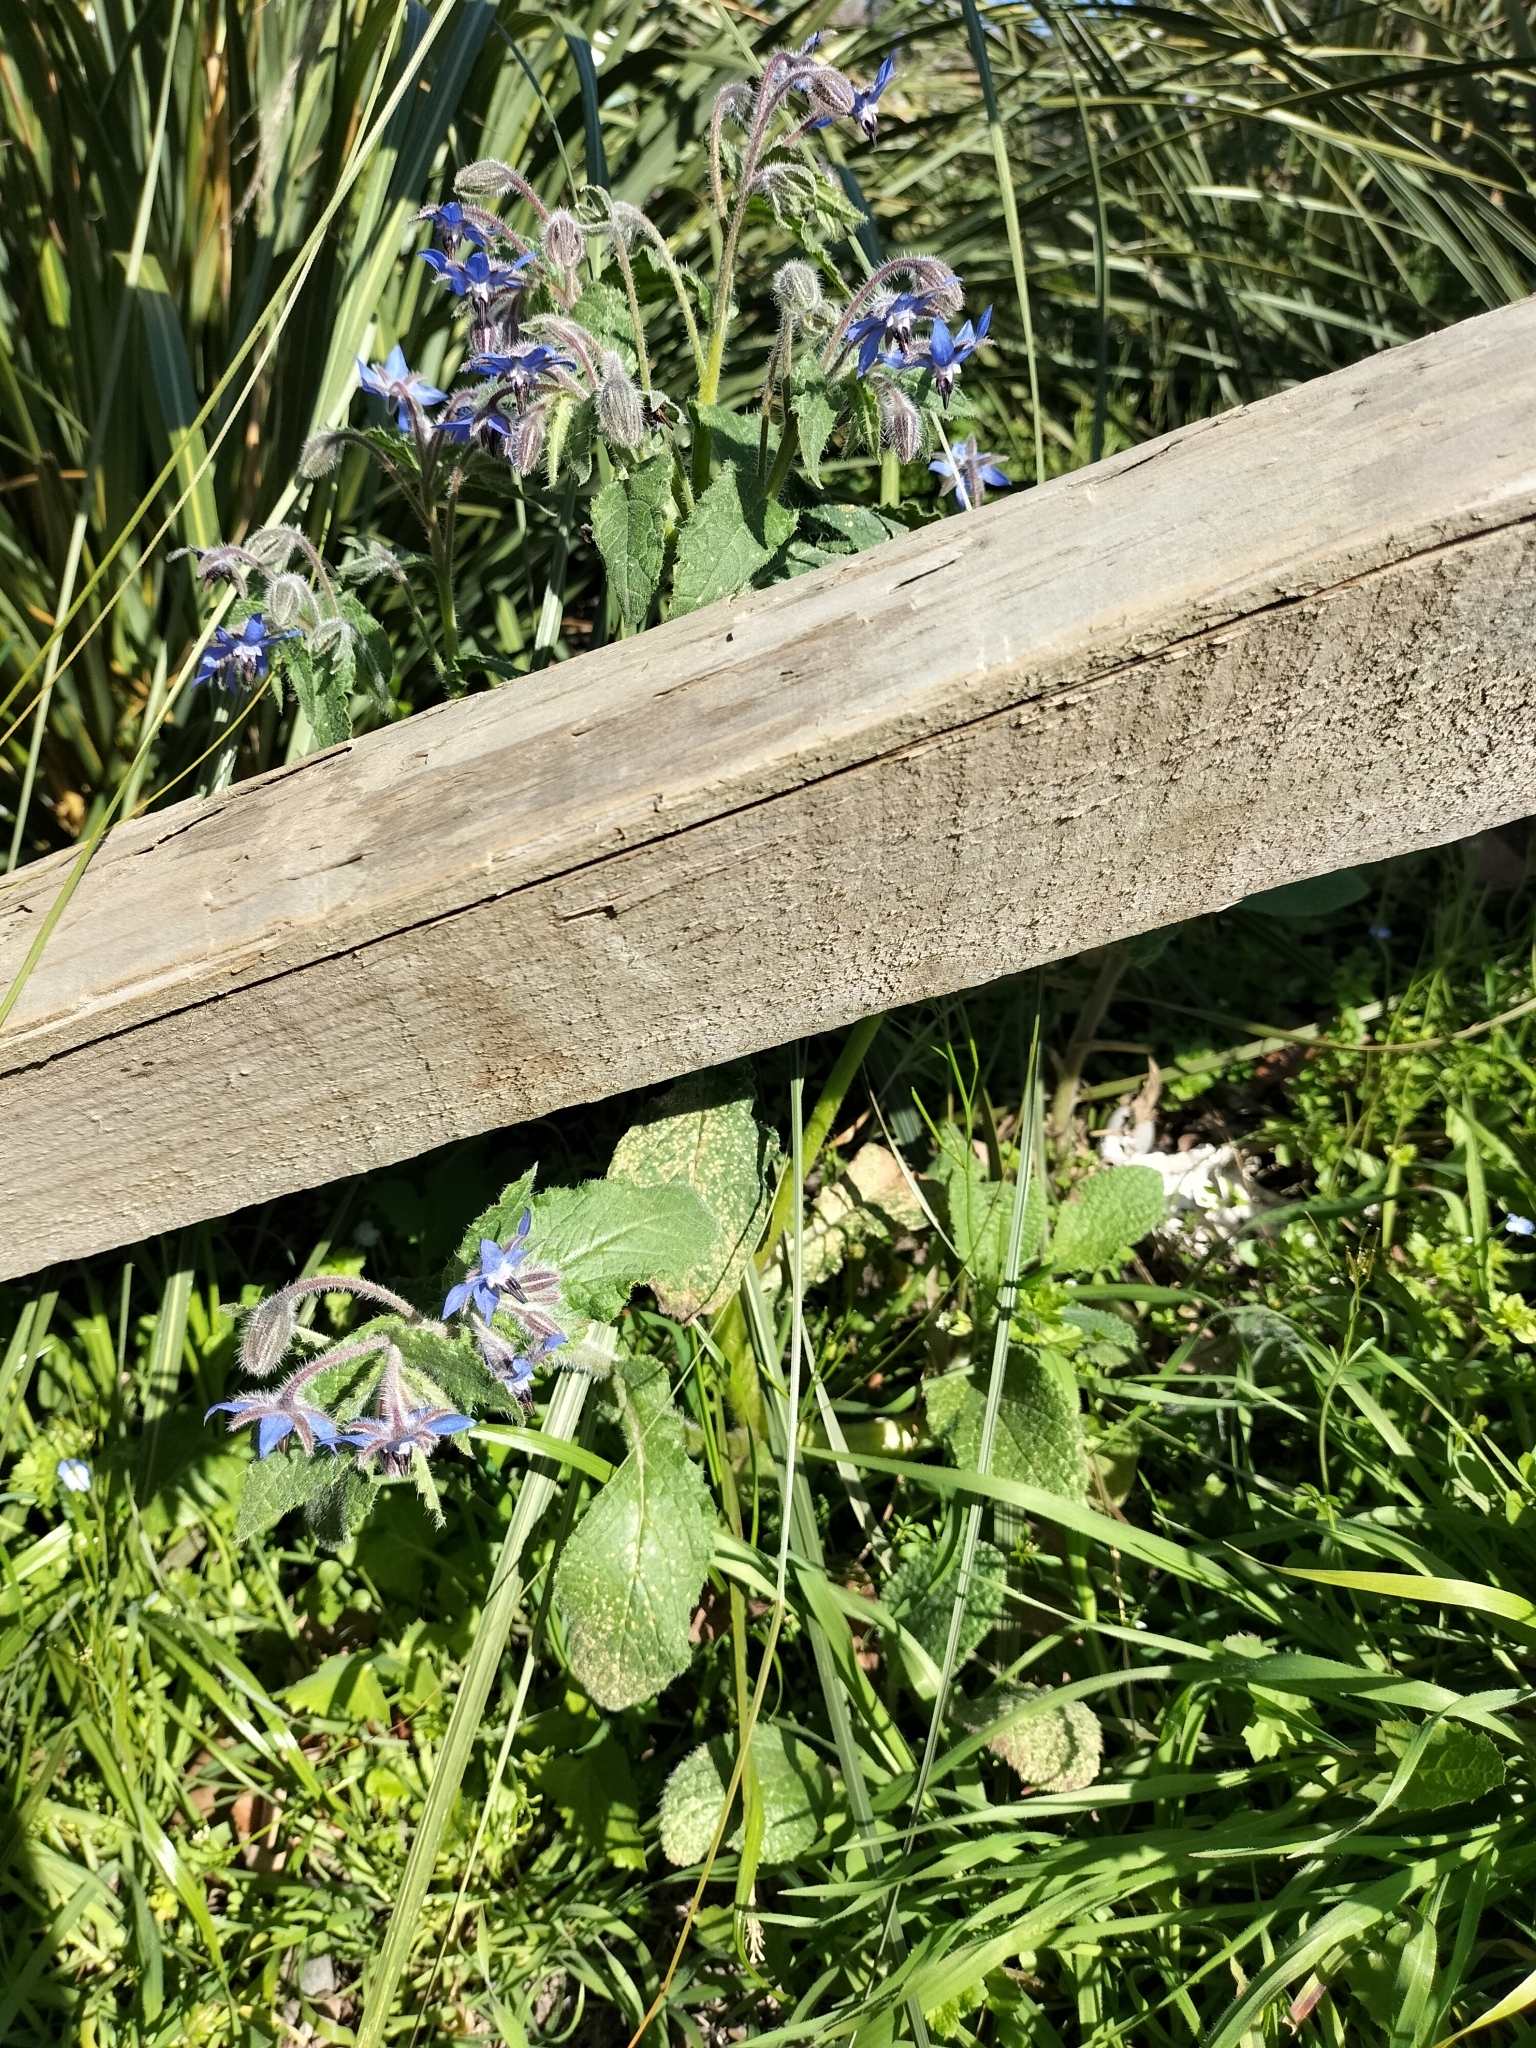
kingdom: Plantae
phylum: Tracheophyta
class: Magnoliopsida
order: Boraginales
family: Boraginaceae
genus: Borago
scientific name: Borago officinalis
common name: Borage
